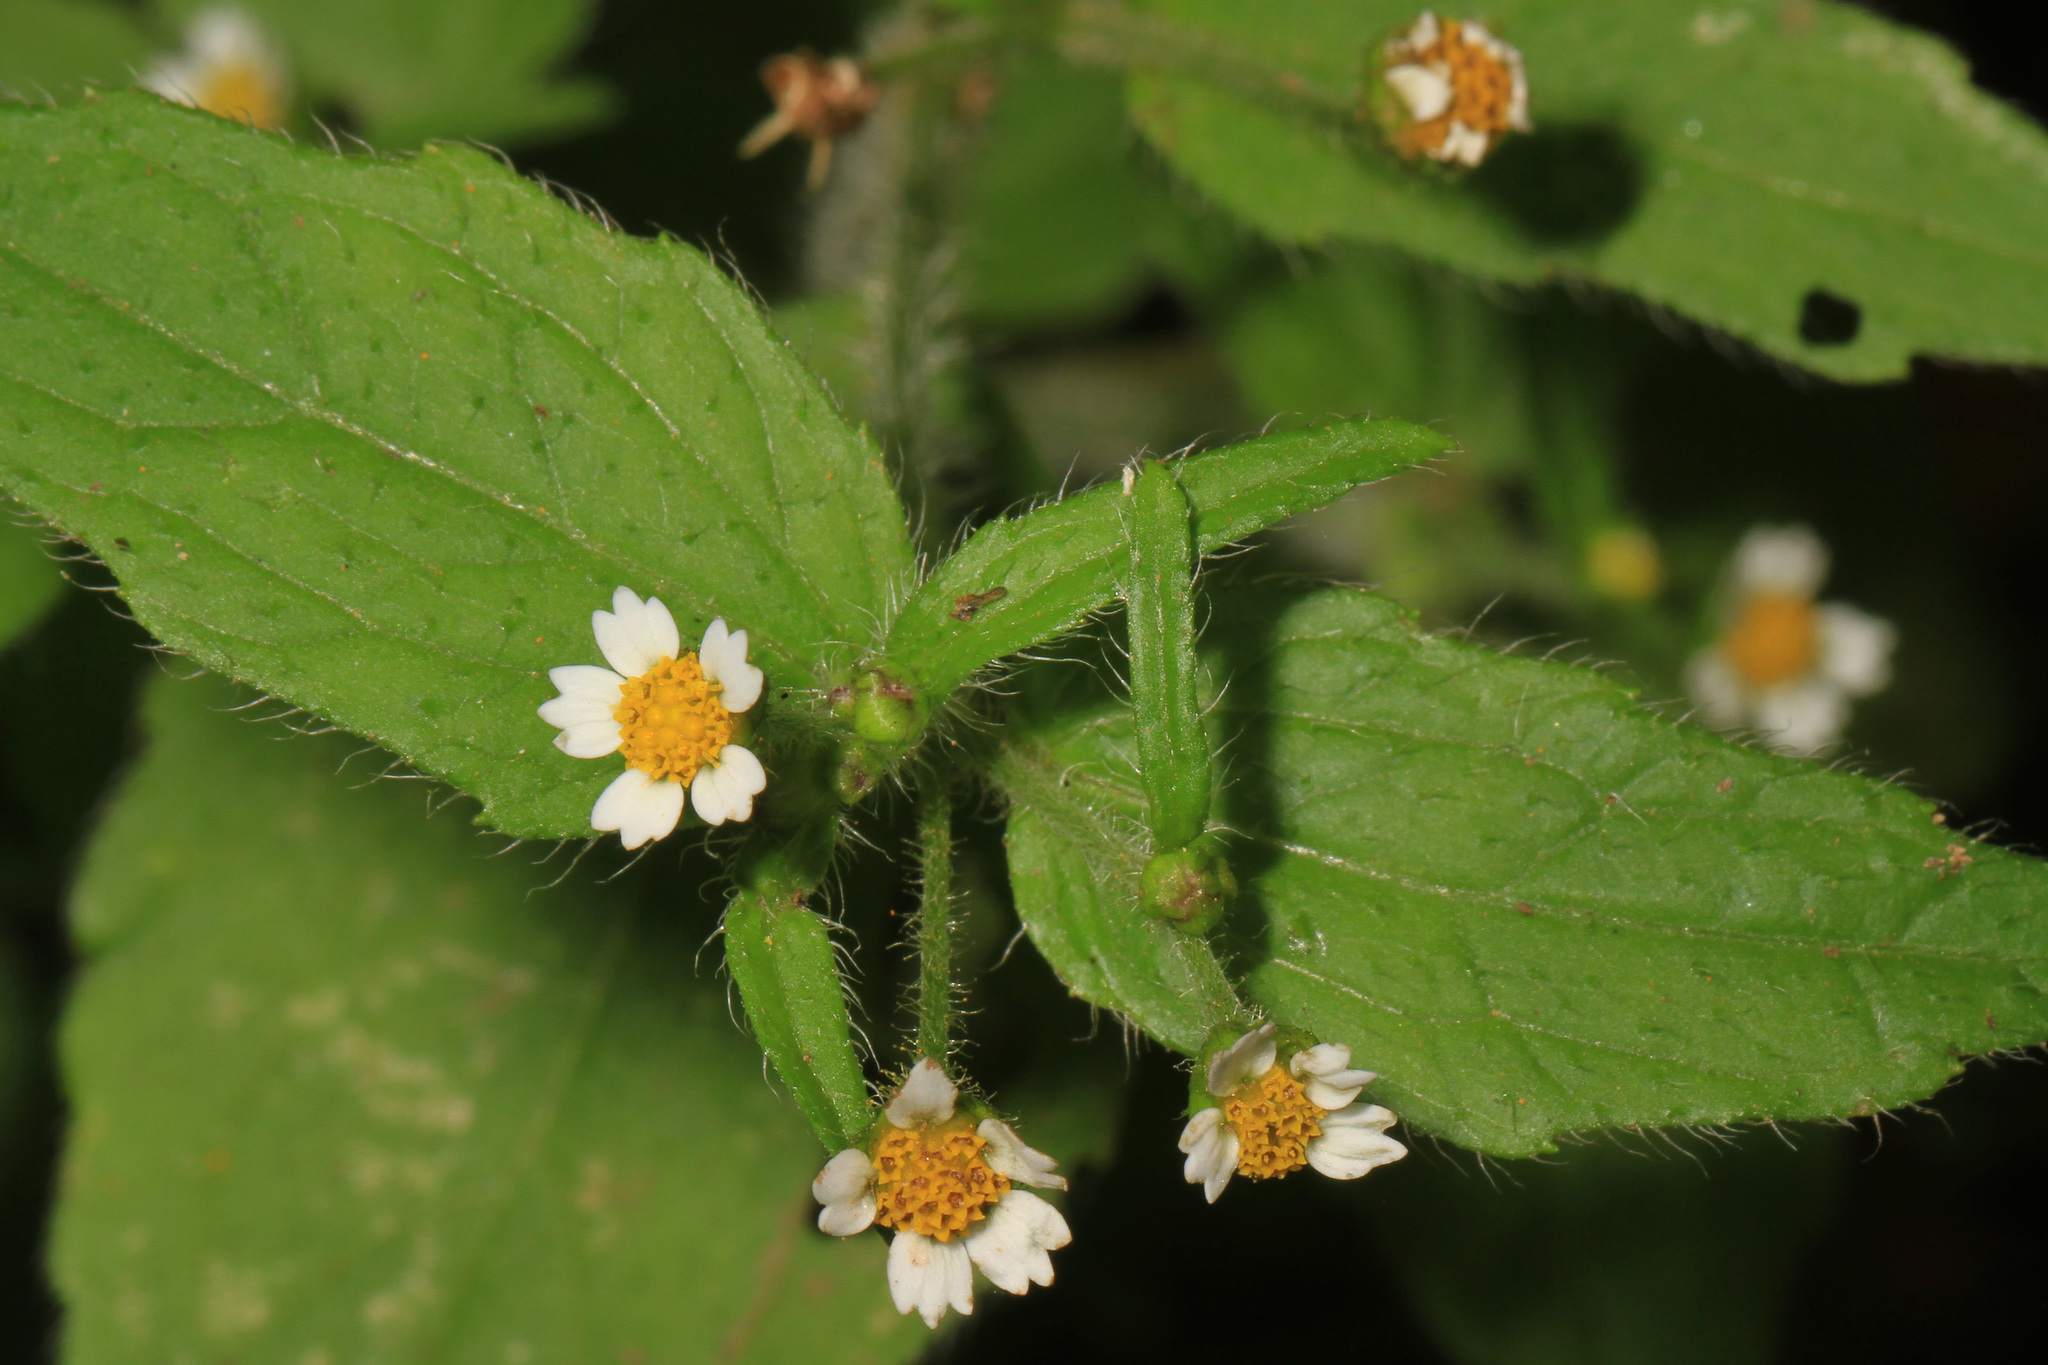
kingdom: Plantae
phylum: Tracheophyta
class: Magnoliopsida
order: Asterales
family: Asteraceae
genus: Galinsoga
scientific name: Galinsoga quadriradiata
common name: Shaggy soldier
